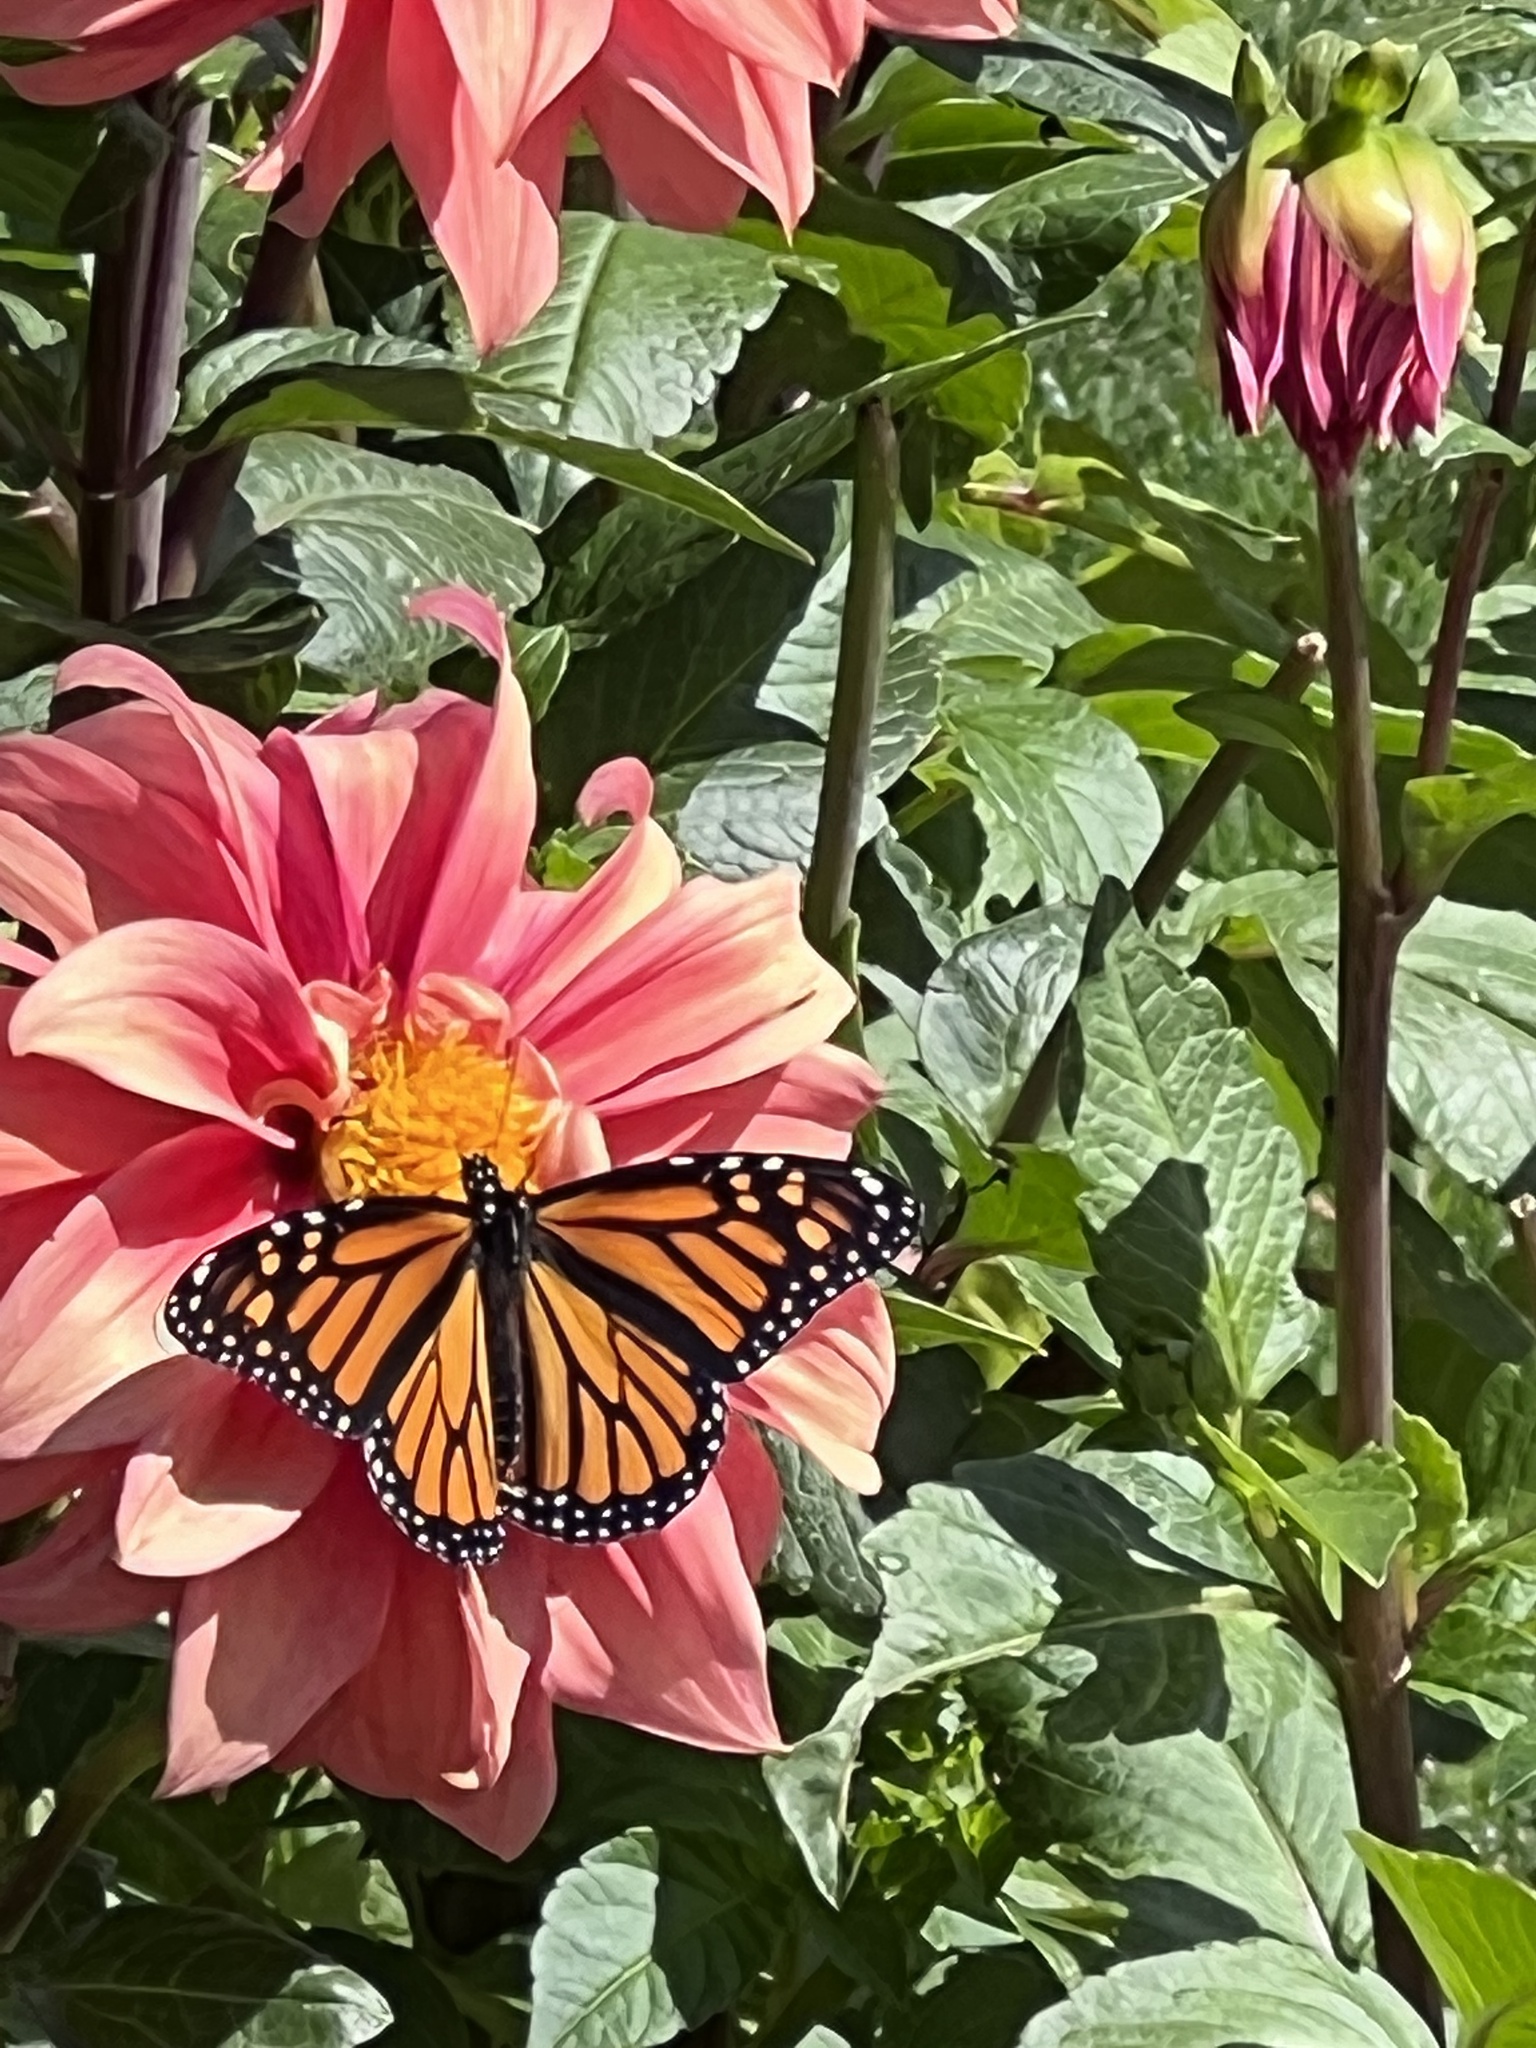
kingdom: Animalia
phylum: Arthropoda
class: Insecta
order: Lepidoptera
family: Nymphalidae
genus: Danaus
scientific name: Danaus plexippus
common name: Monarch
